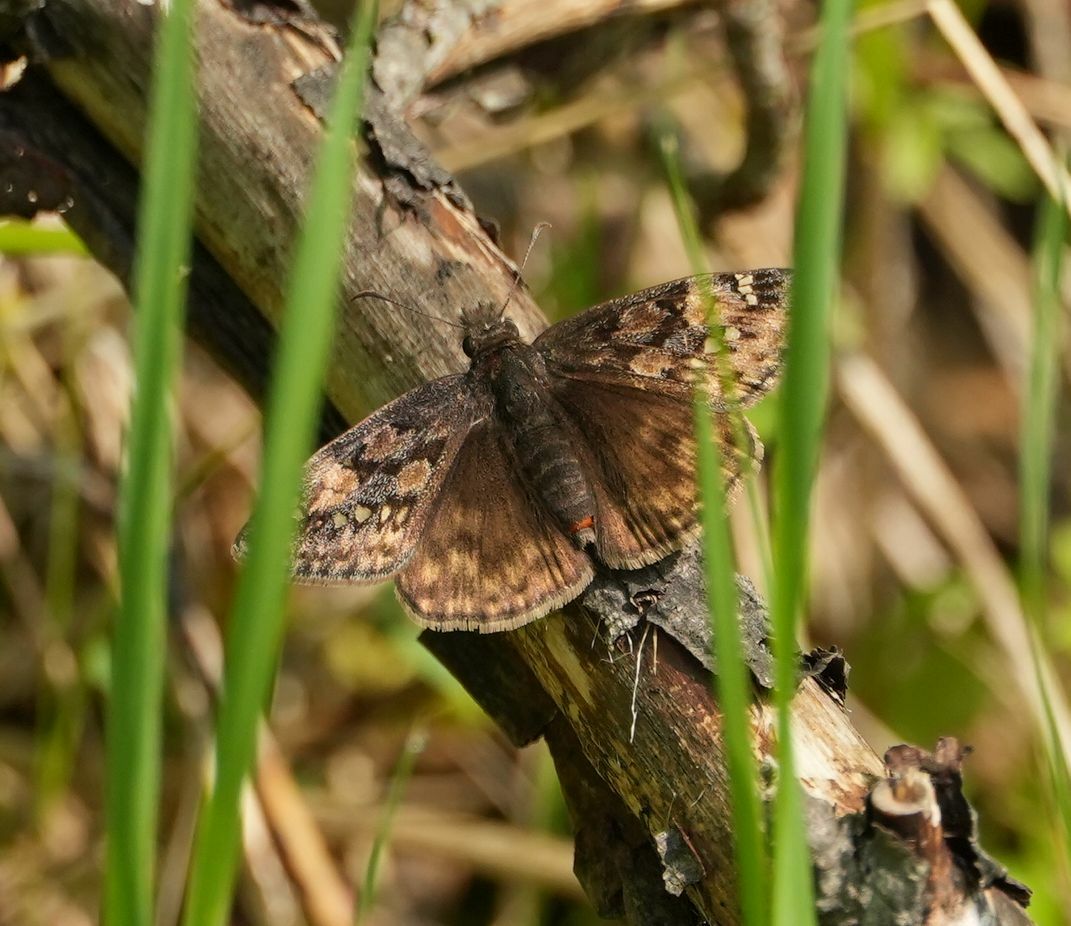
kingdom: Animalia
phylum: Arthropoda
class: Insecta
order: Lepidoptera
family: Hesperiidae
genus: Erynnis
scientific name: Erynnis juvenalis
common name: Juvenal's duskywing
